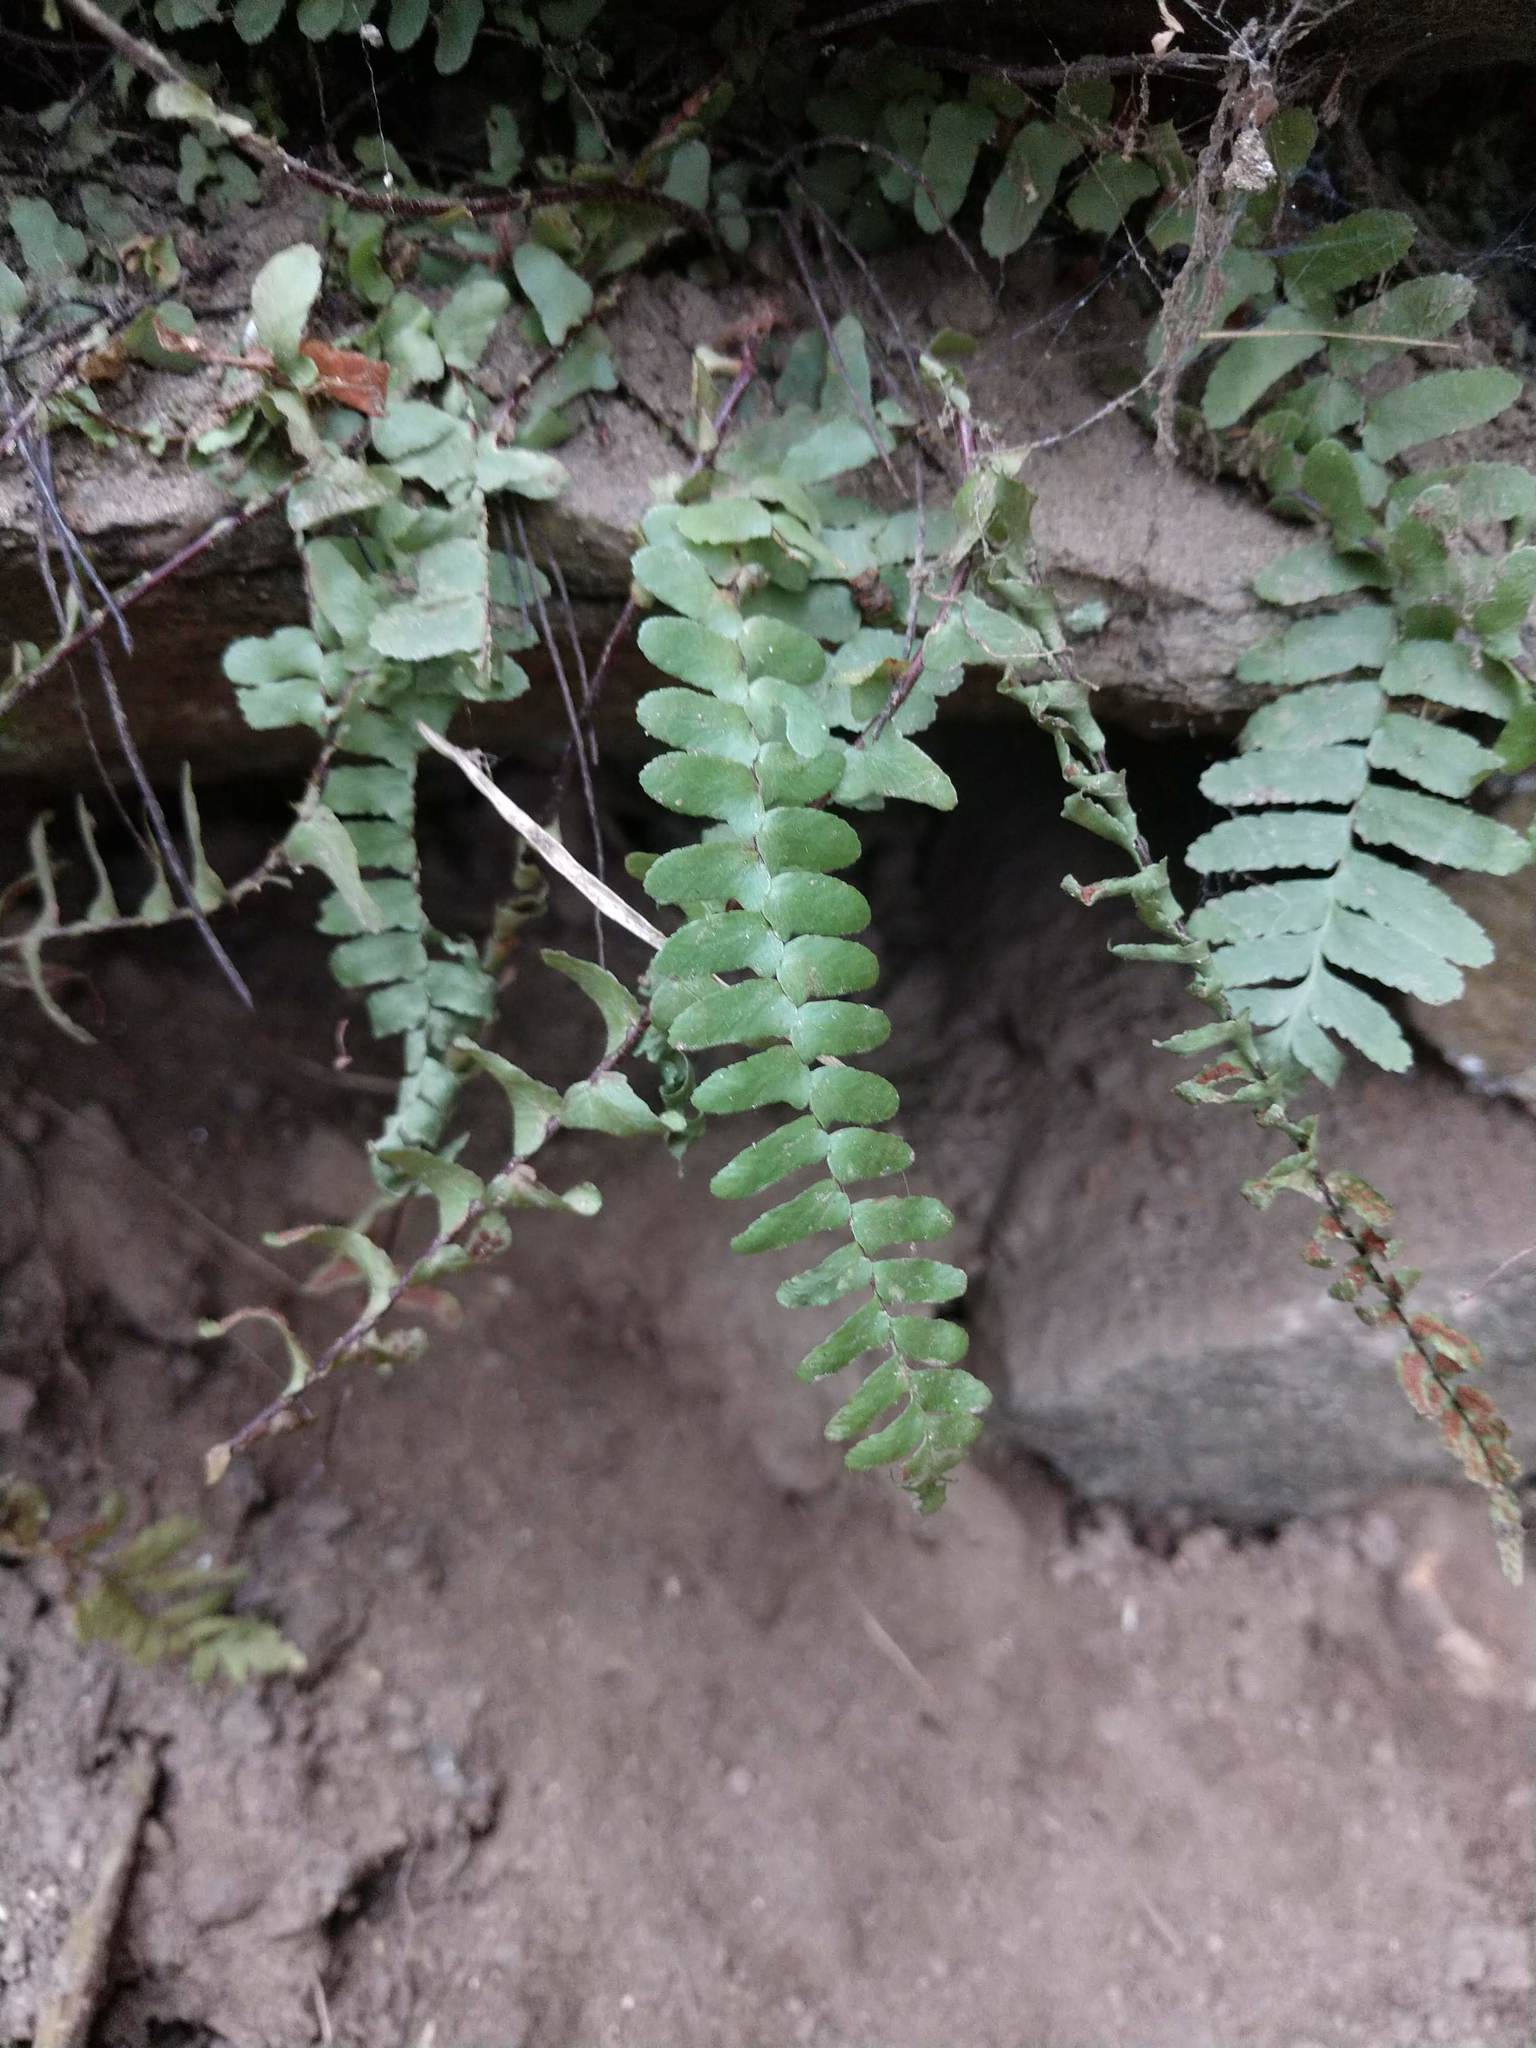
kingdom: Plantae
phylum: Tracheophyta
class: Polypodiopsida
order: Polypodiales
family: Aspleniaceae
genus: Asplenium
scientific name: Asplenium platyneuron
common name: Ebony spleenwort
